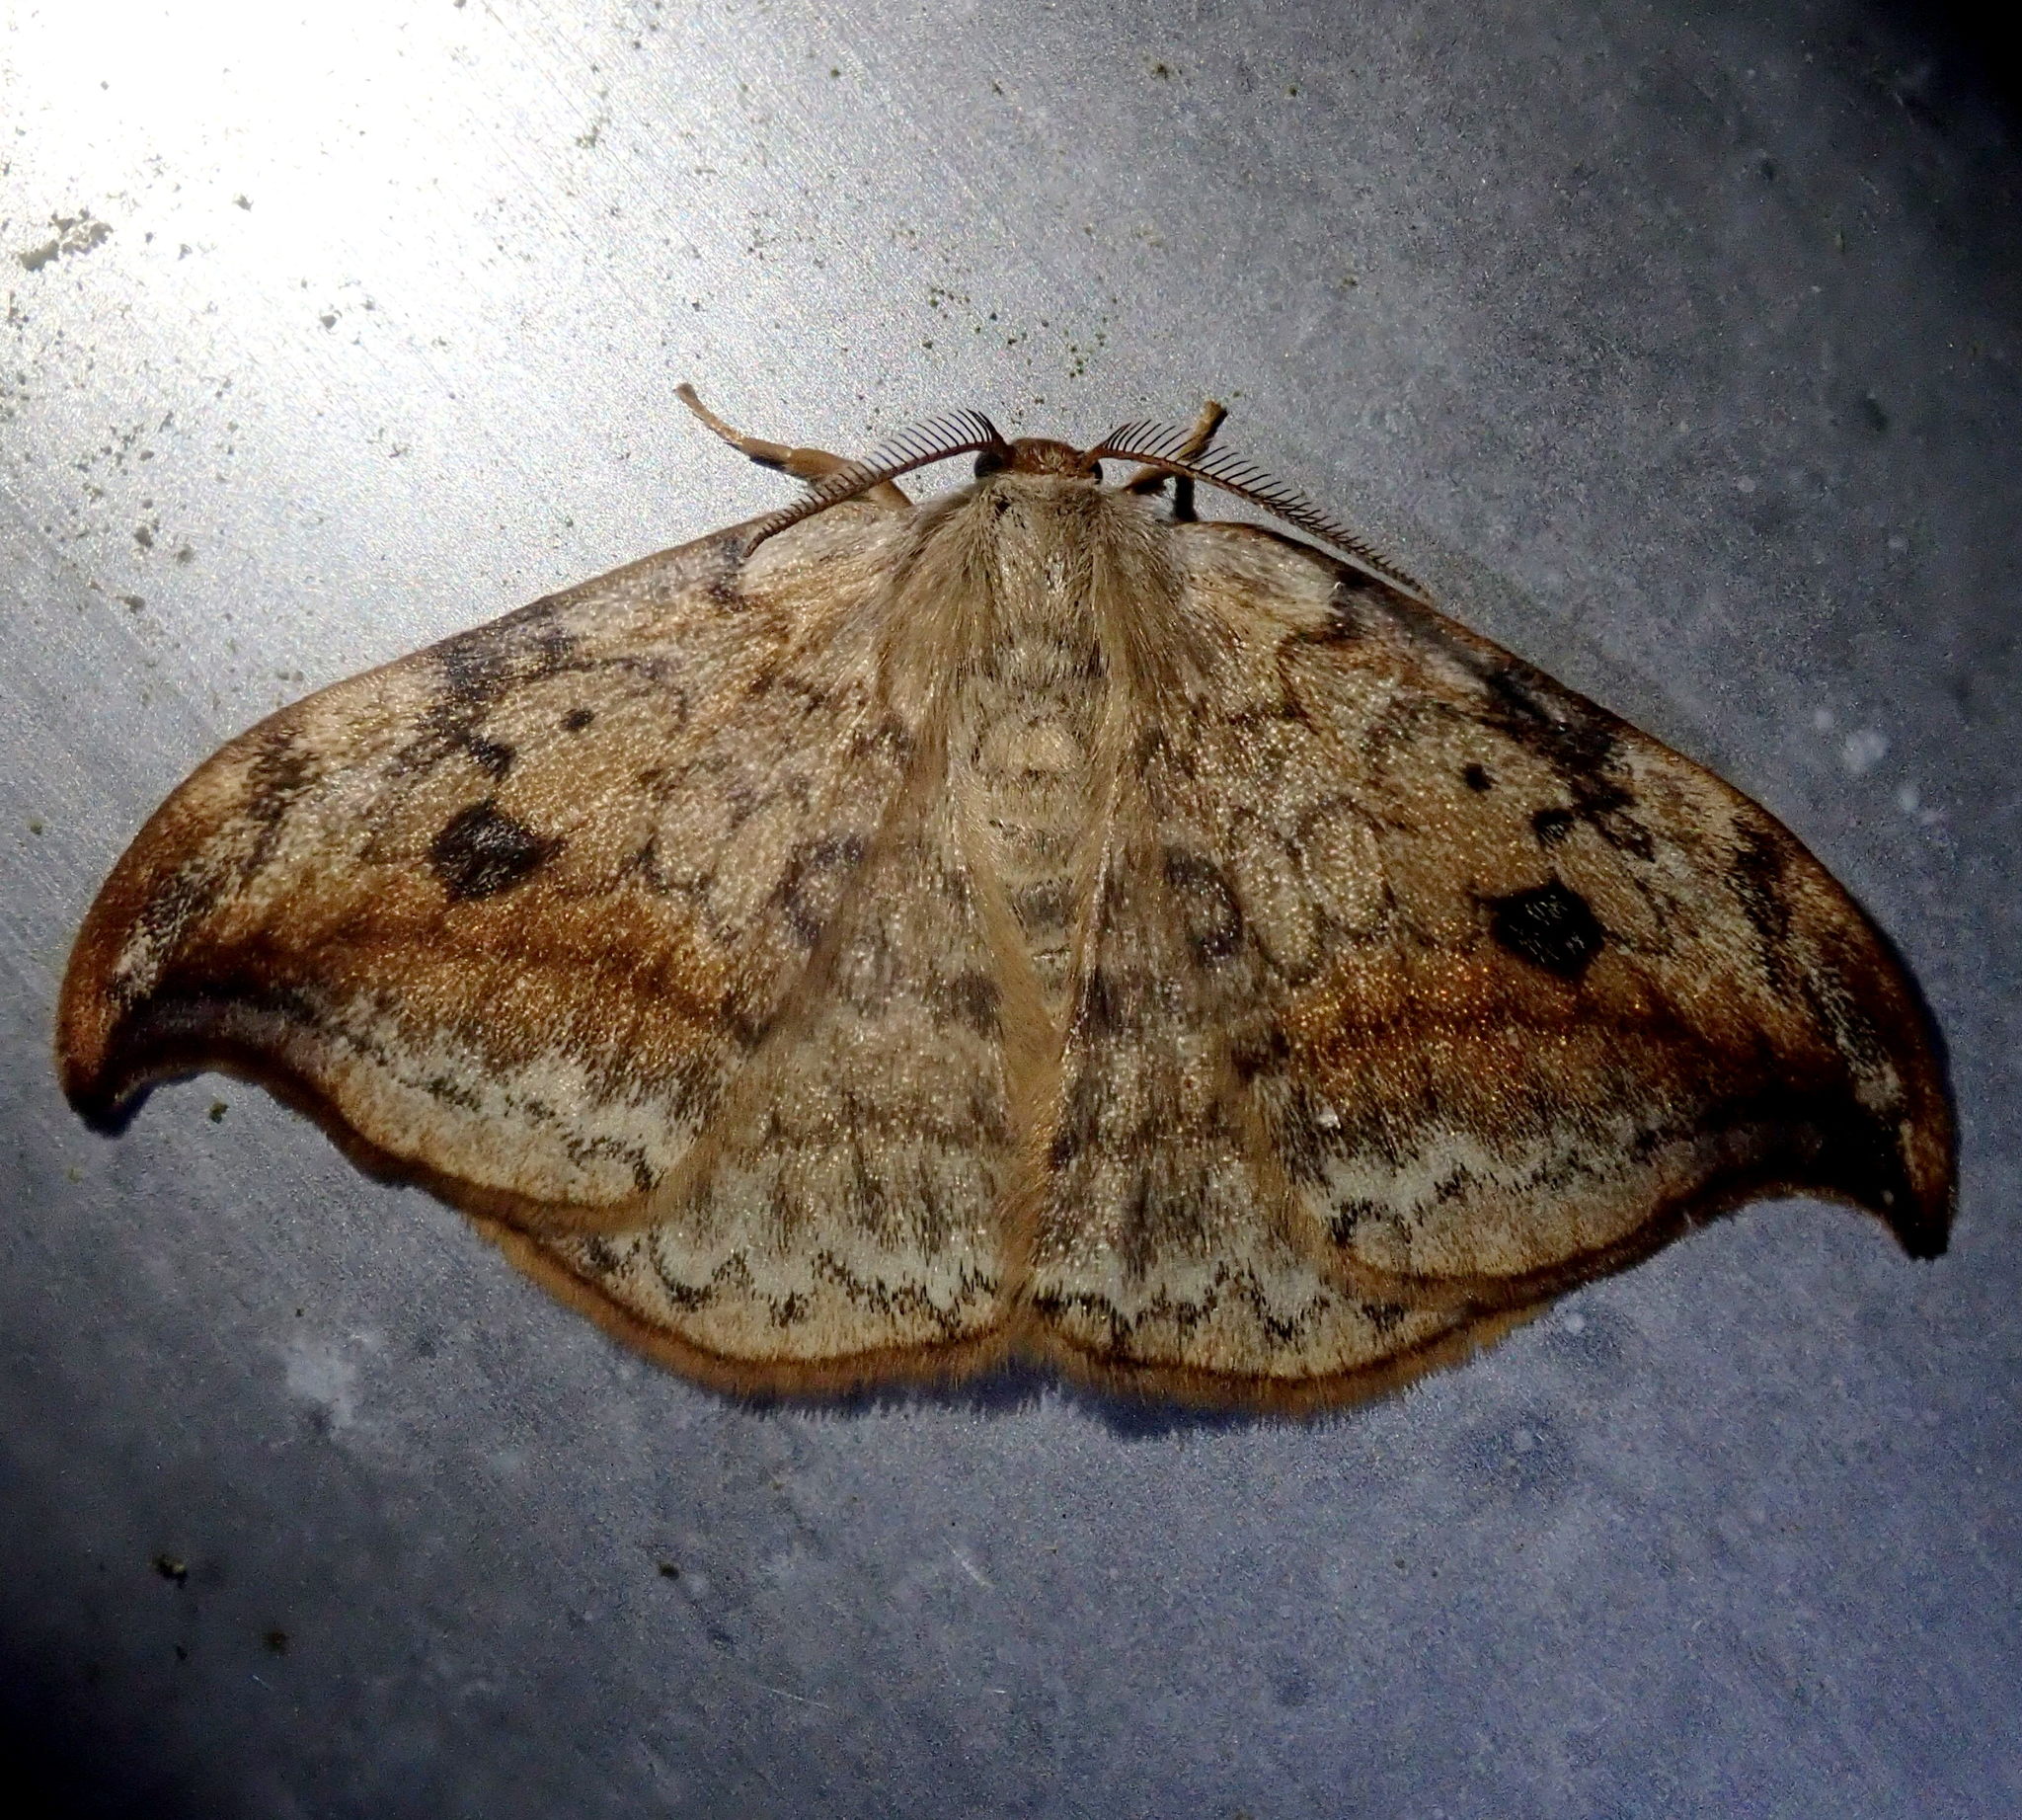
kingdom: Animalia
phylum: Arthropoda
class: Insecta
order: Lepidoptera
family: Drepanidae
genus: Drepana
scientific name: Drepana falcataria
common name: Pebble hook-tip
